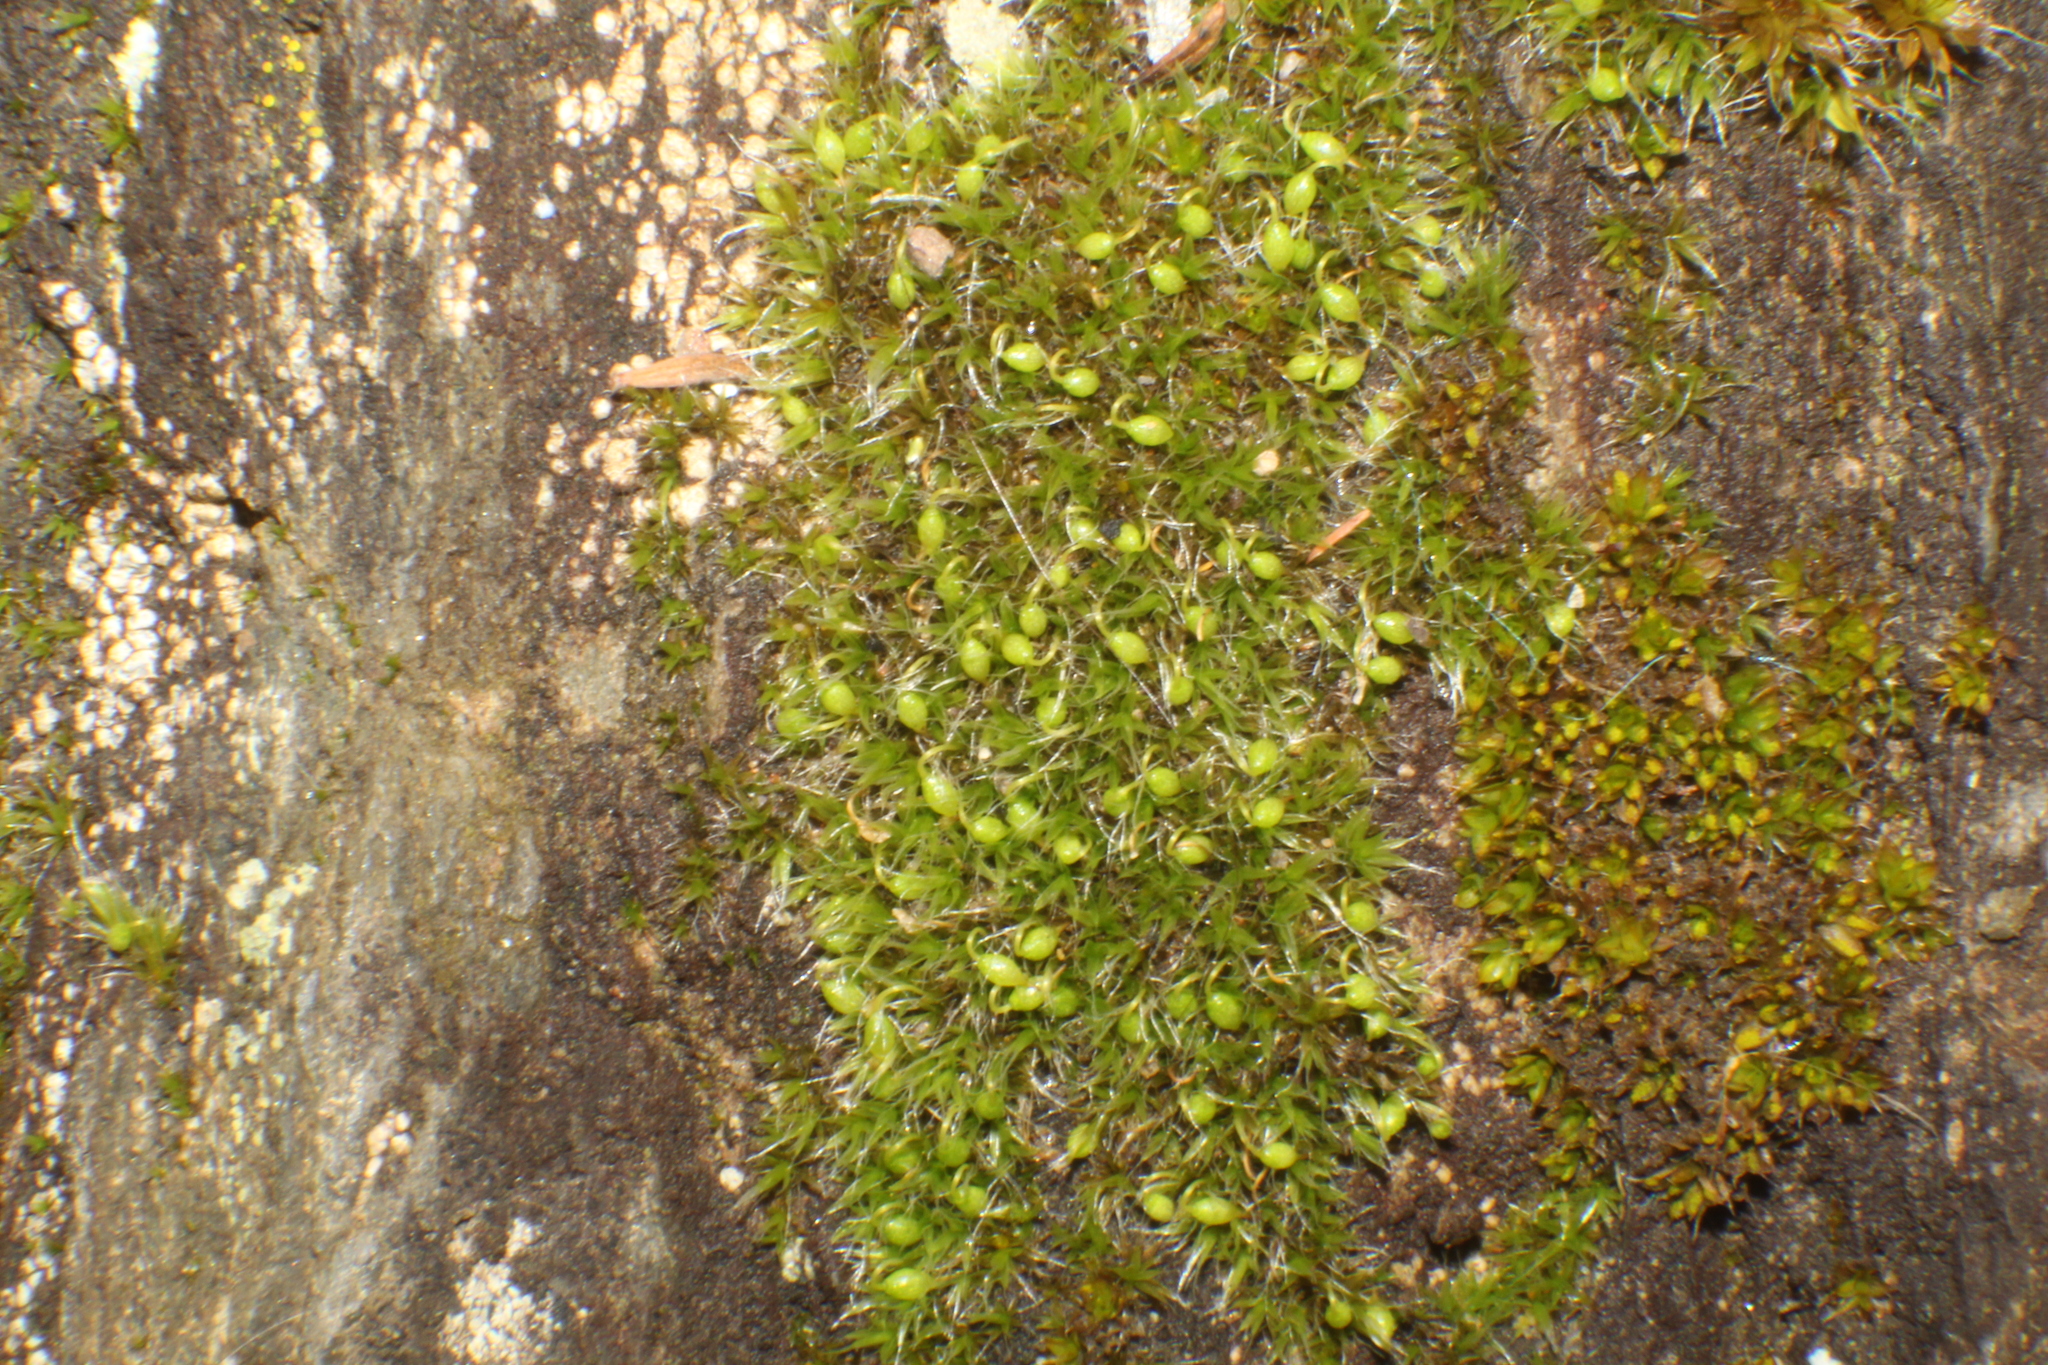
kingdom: Plantae
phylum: Bryophyta
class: Bryopsida
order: Grimmiales
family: Grimmiaceae
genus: Grimmia
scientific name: Grimmia pulvinata
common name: Grey-cushioned grimmia
